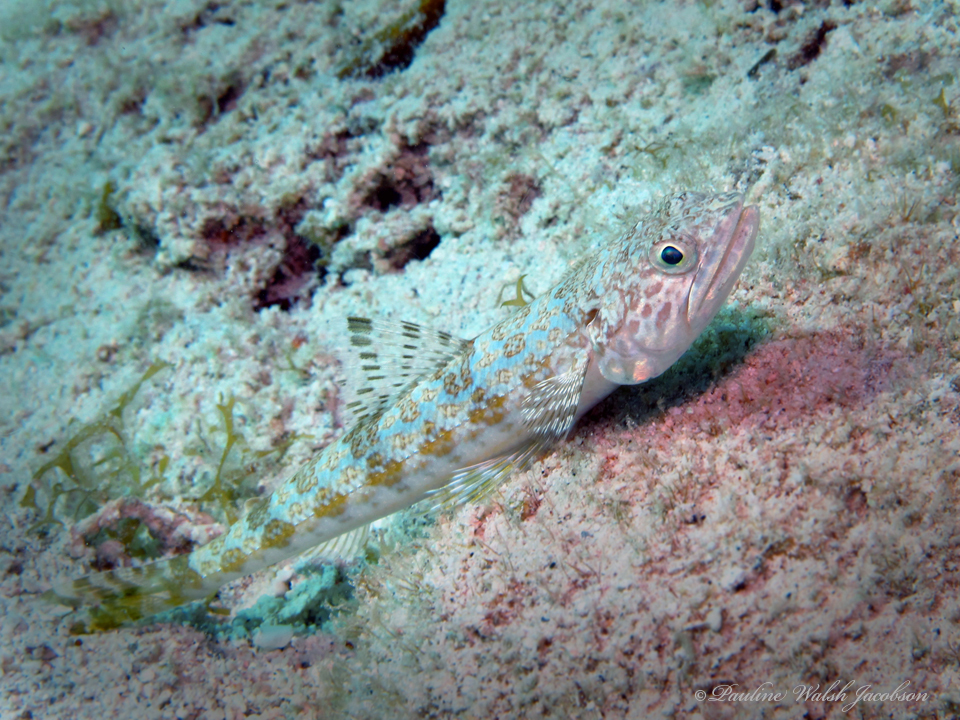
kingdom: Animalia
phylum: Chordata
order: Aulopiformes
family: Synodontidae
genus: Synodus
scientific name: Synodus intermedius
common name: Sand diver
